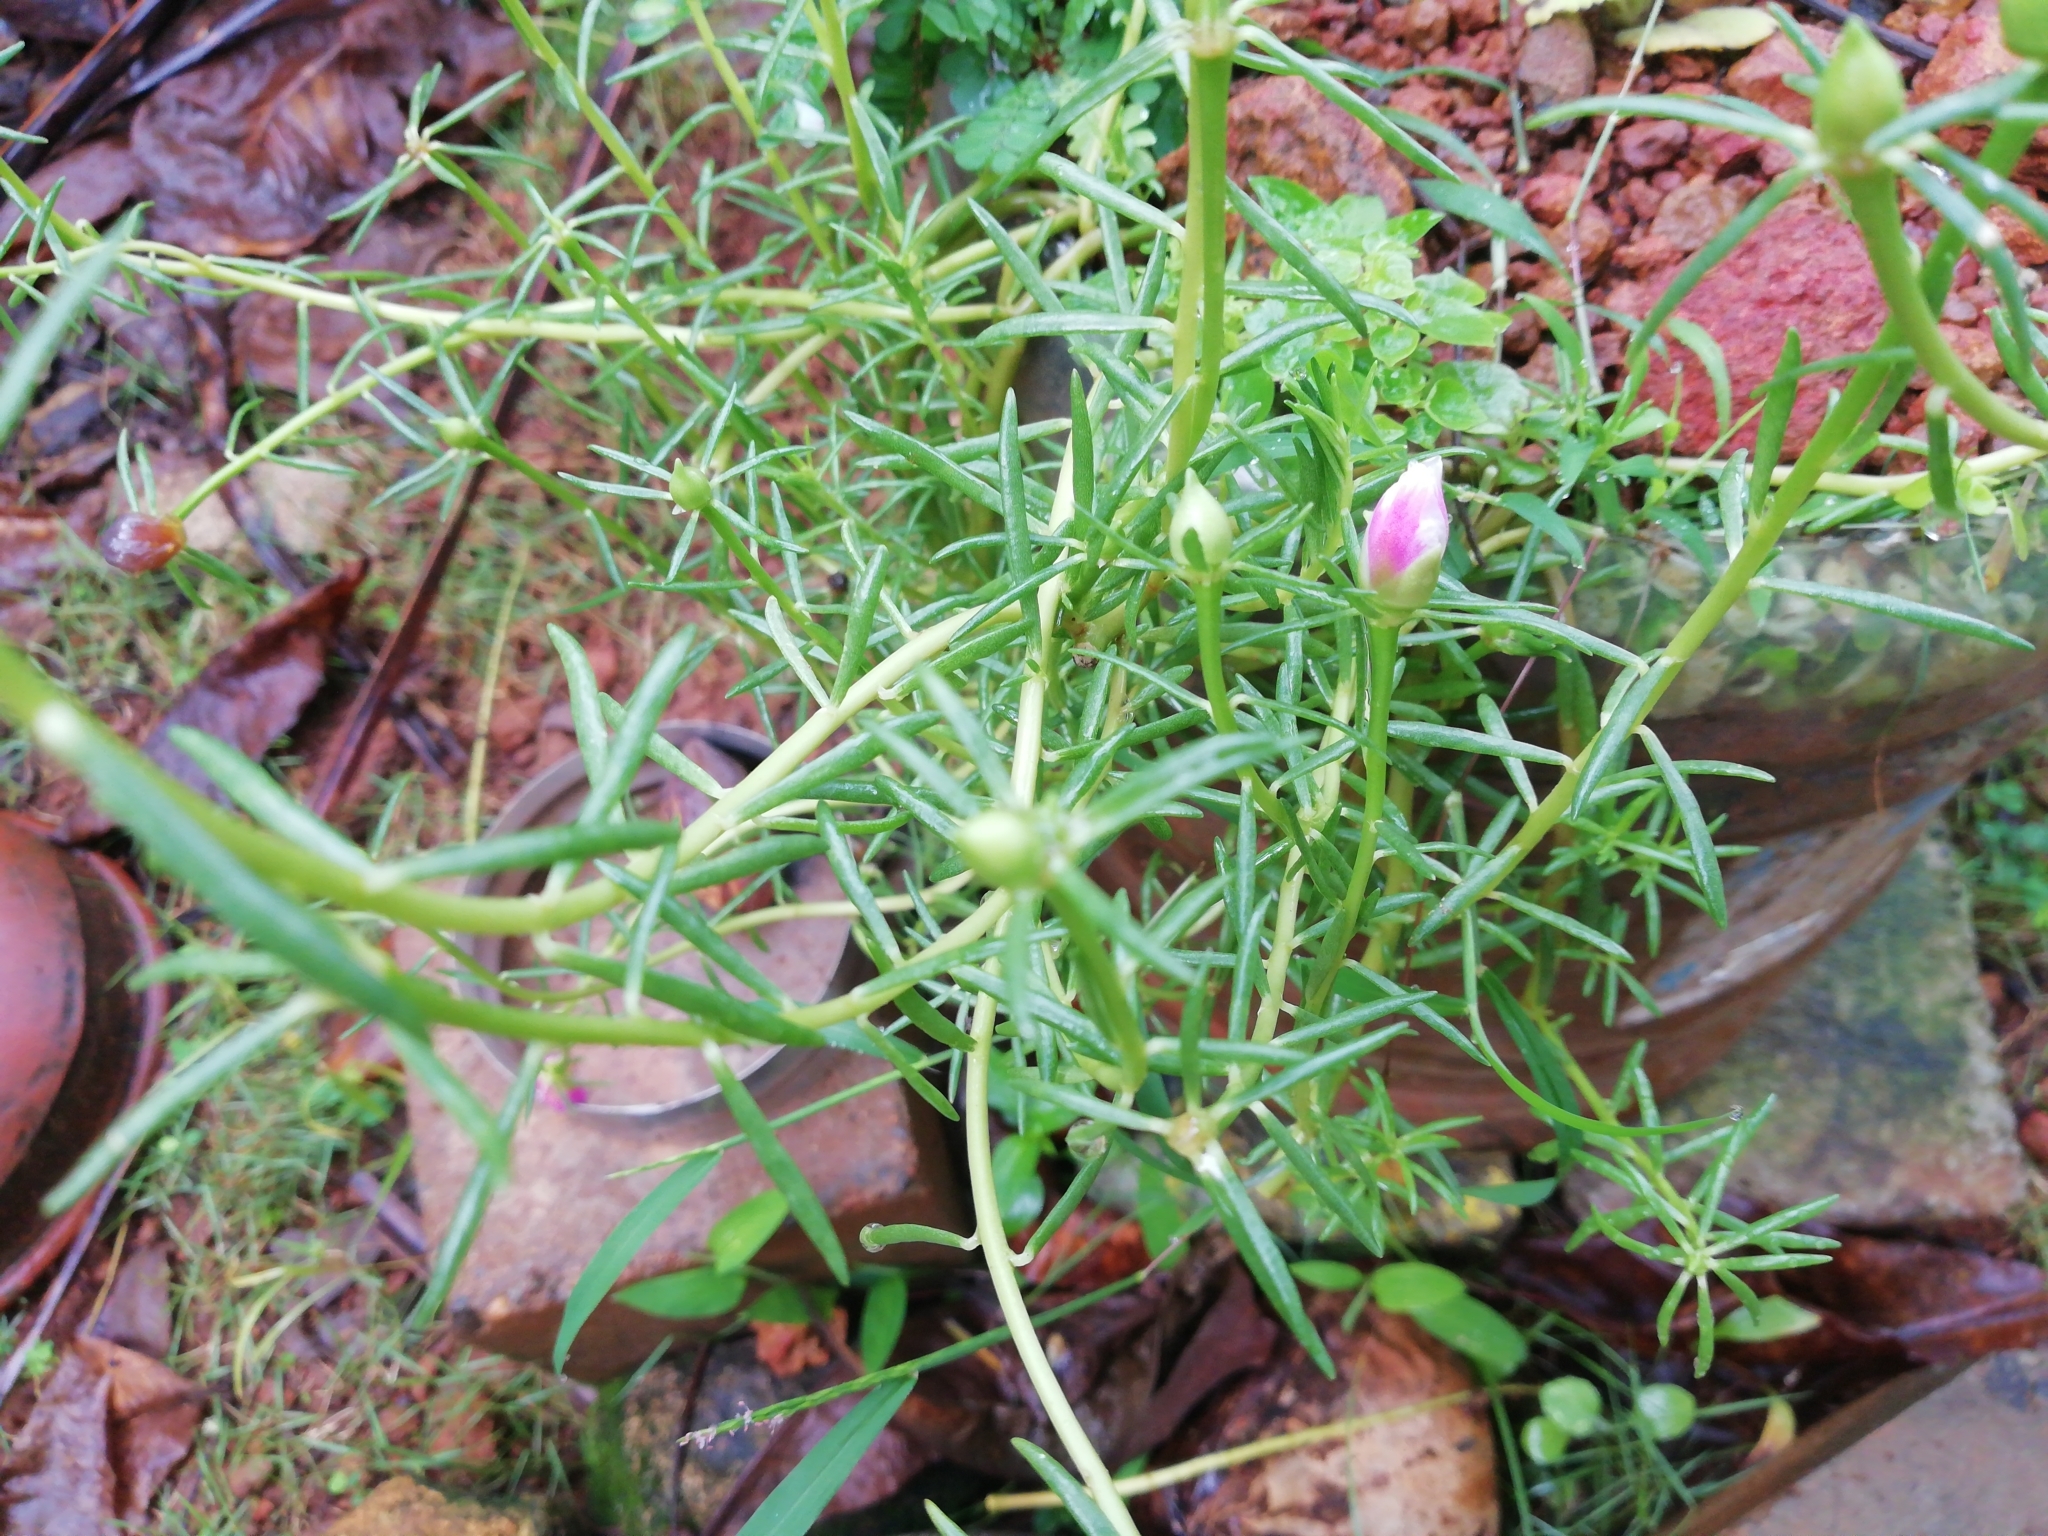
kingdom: Plantae
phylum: Tracheophyta
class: Magnoliopsida
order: Caryophyllales
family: Portulacaceae
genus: Portulaca
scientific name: Portulaca grandiflora
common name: Moss-rose
